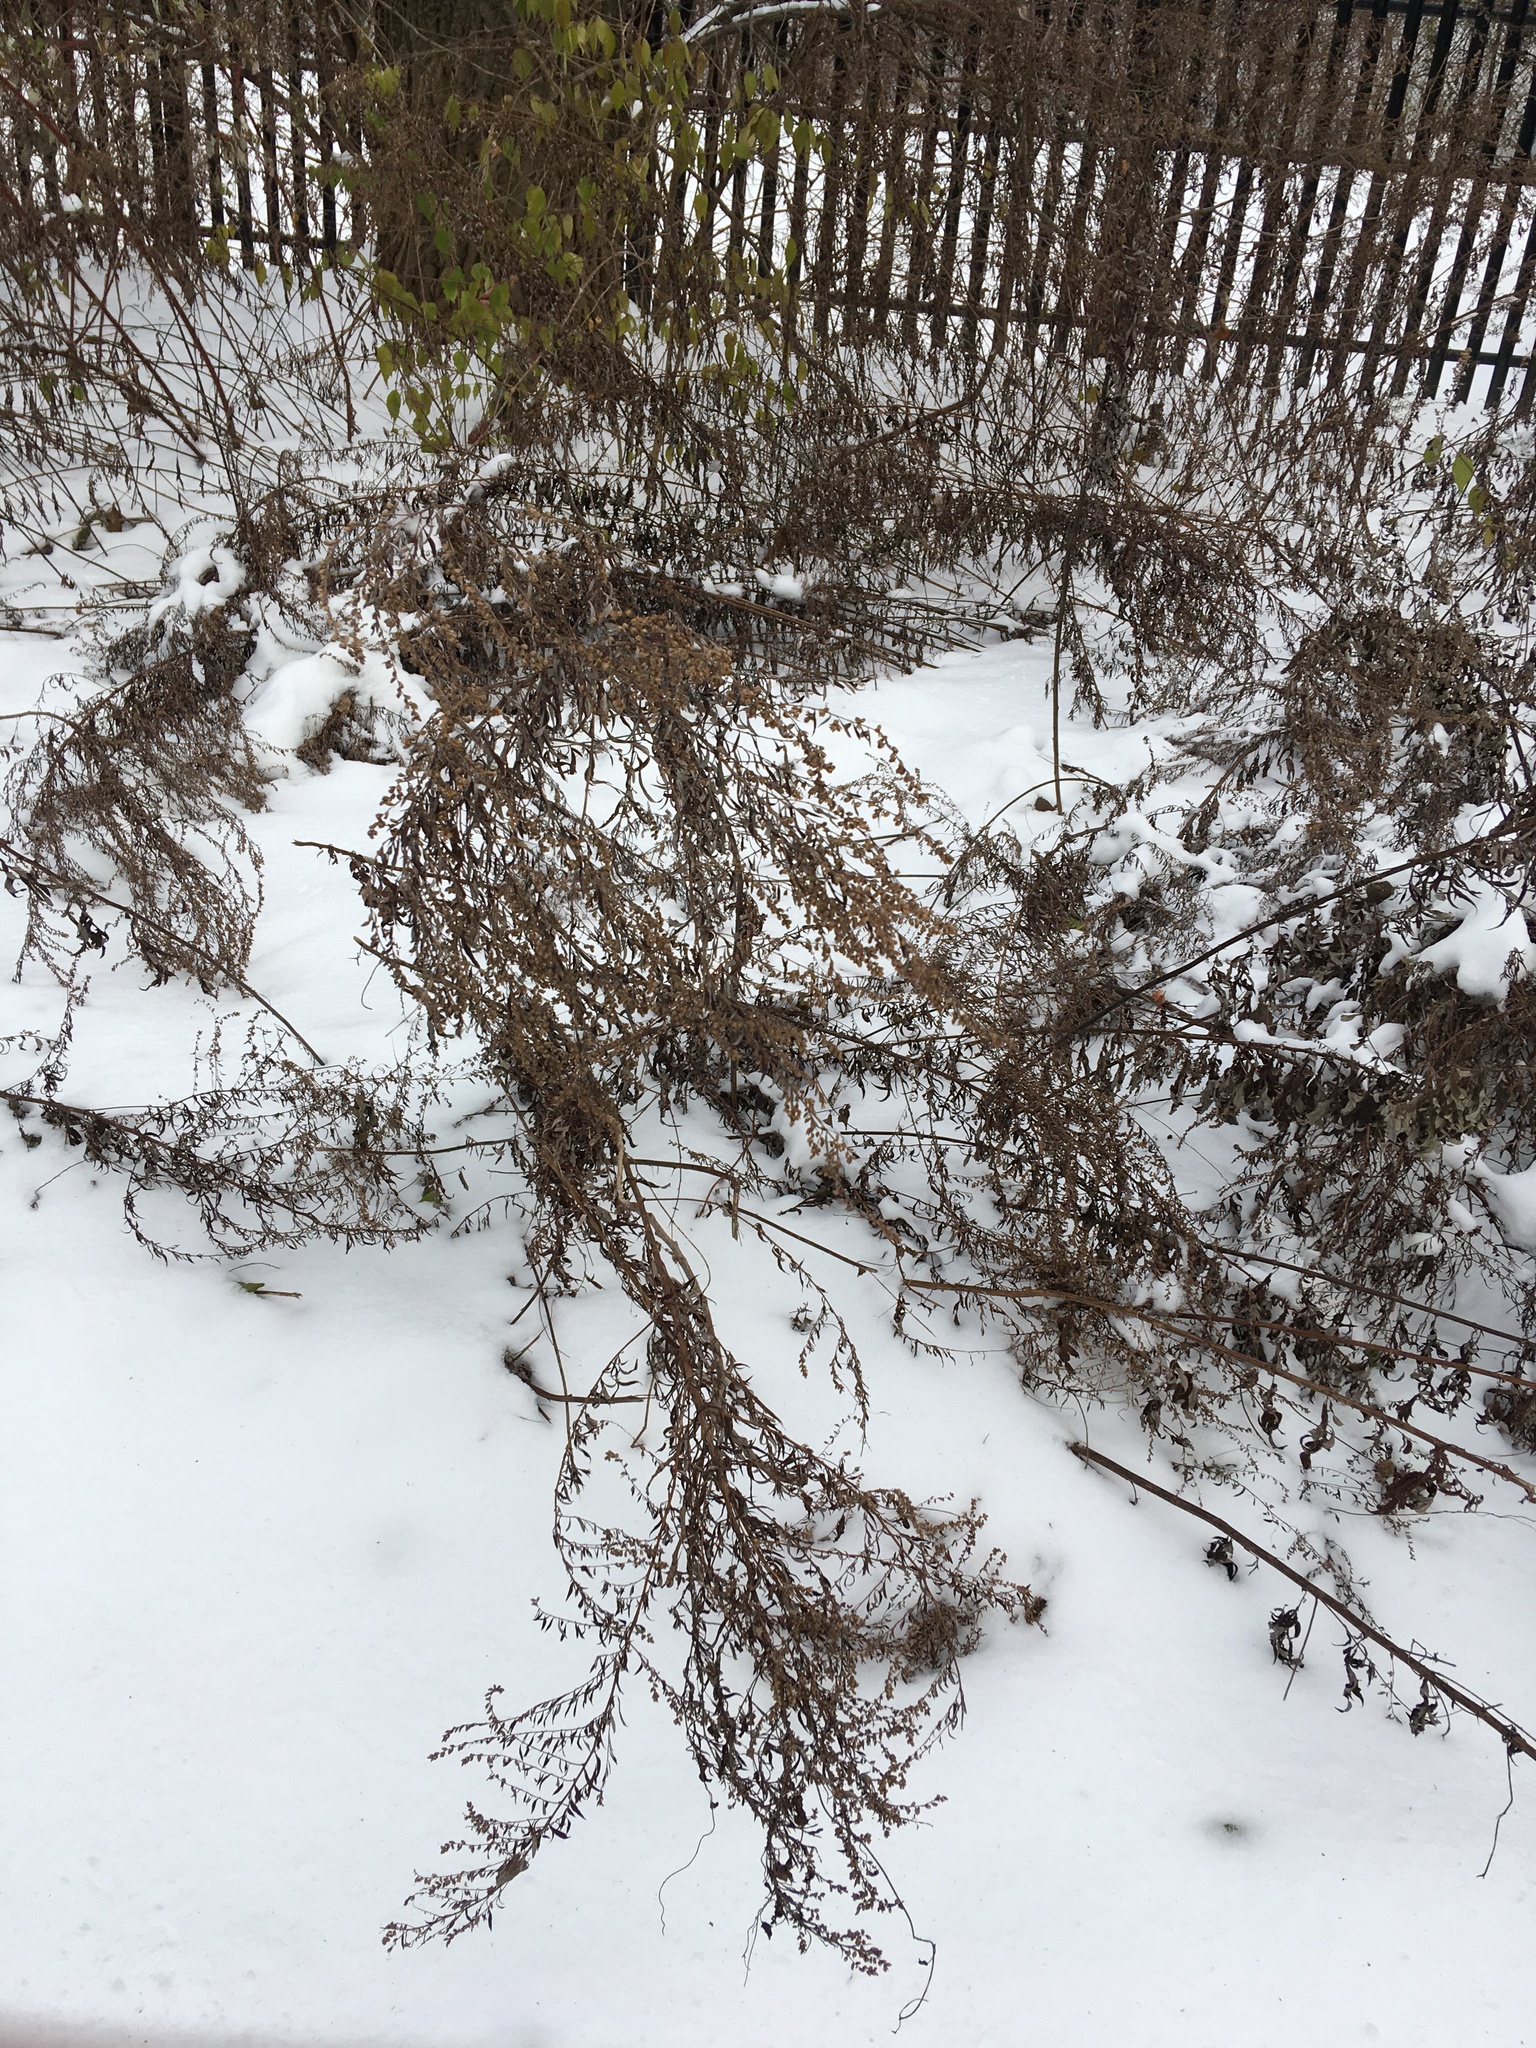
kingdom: Plantae
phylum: Tracheophyta
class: Magnoliopsida
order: Asterales
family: Asteraceae
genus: Artemisia
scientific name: Artemisia vulgaris
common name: Mugwort
